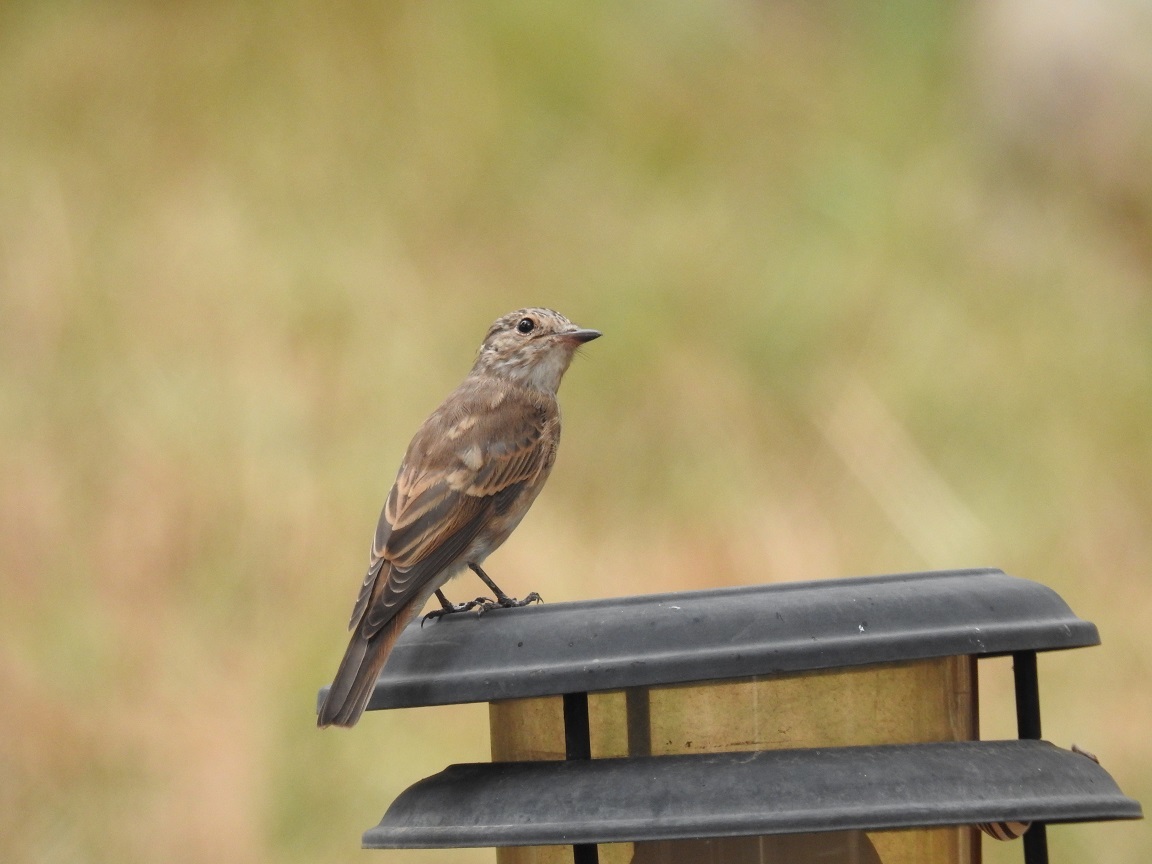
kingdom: Animalia
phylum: Chordata
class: Aves
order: Passeriformes
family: Muscicapidae
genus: Muscicapa
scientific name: Muscicapa striata
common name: Spotted flycatcher
